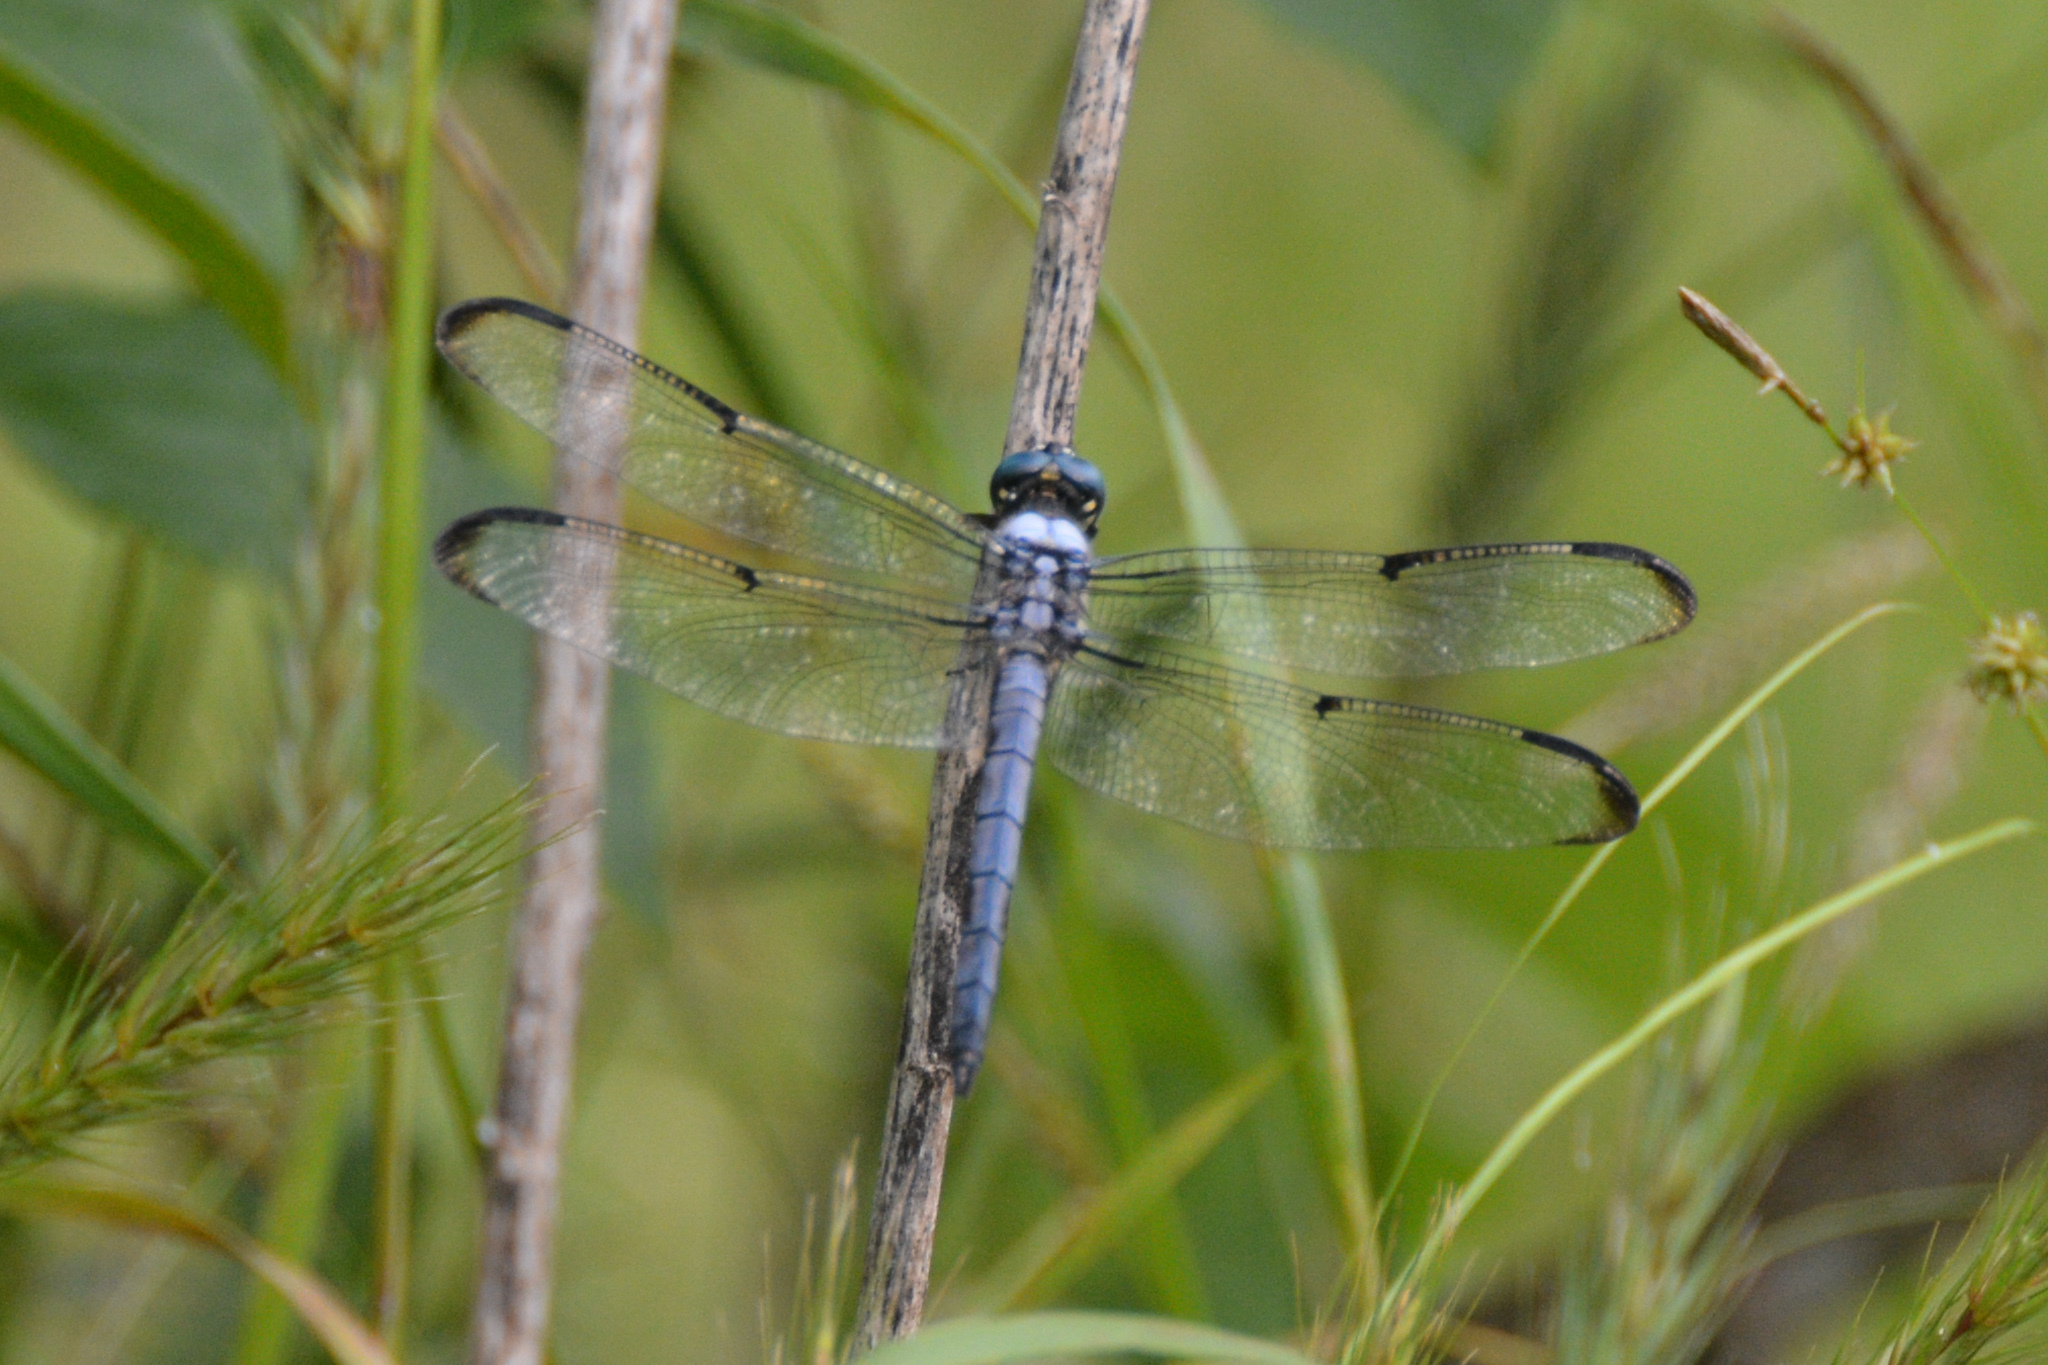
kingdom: Animalia
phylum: Arthropoda
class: Insecta
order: Odonata
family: Libellulidae
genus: Libellula
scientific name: Libellula vibrans
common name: Great blue skimmer
